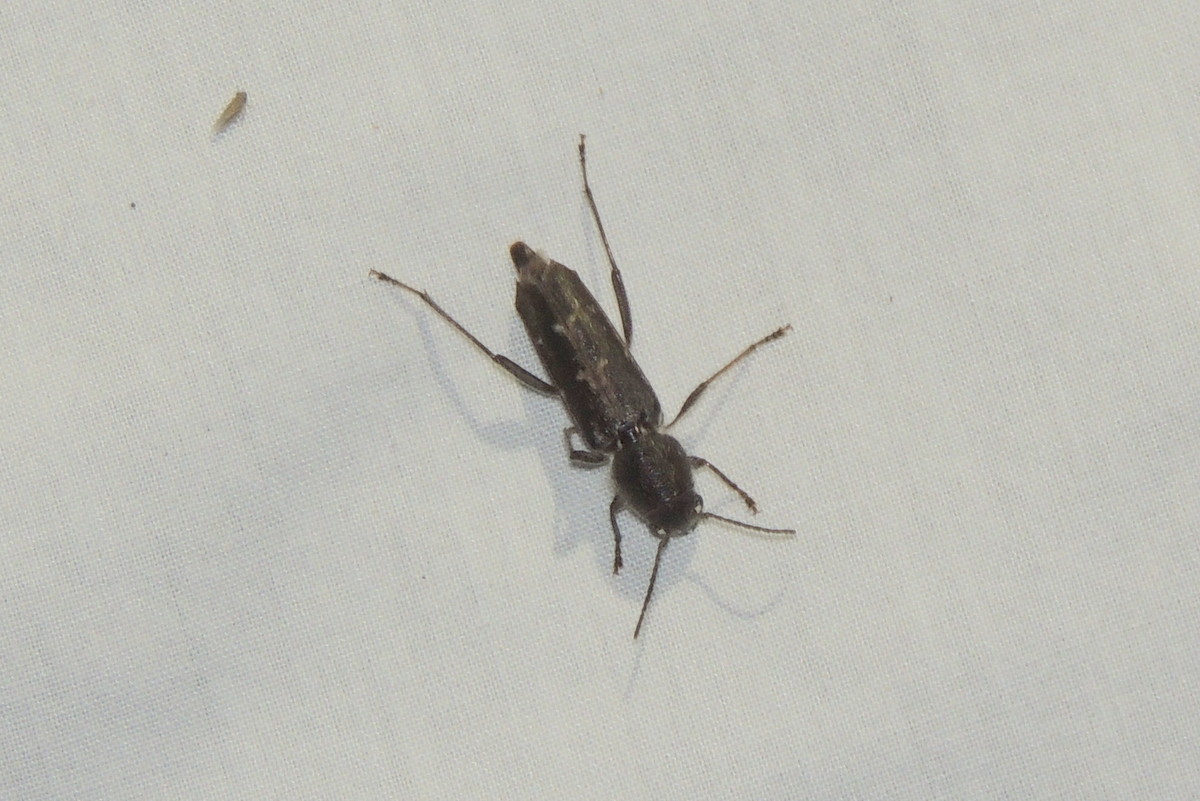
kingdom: Animalia
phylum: Arthropoda
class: Insecta
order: Coleoptera
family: Cerambycidae
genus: Xylotrechus
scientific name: Xylotrechus sagittatus
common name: Arrowhead borer
